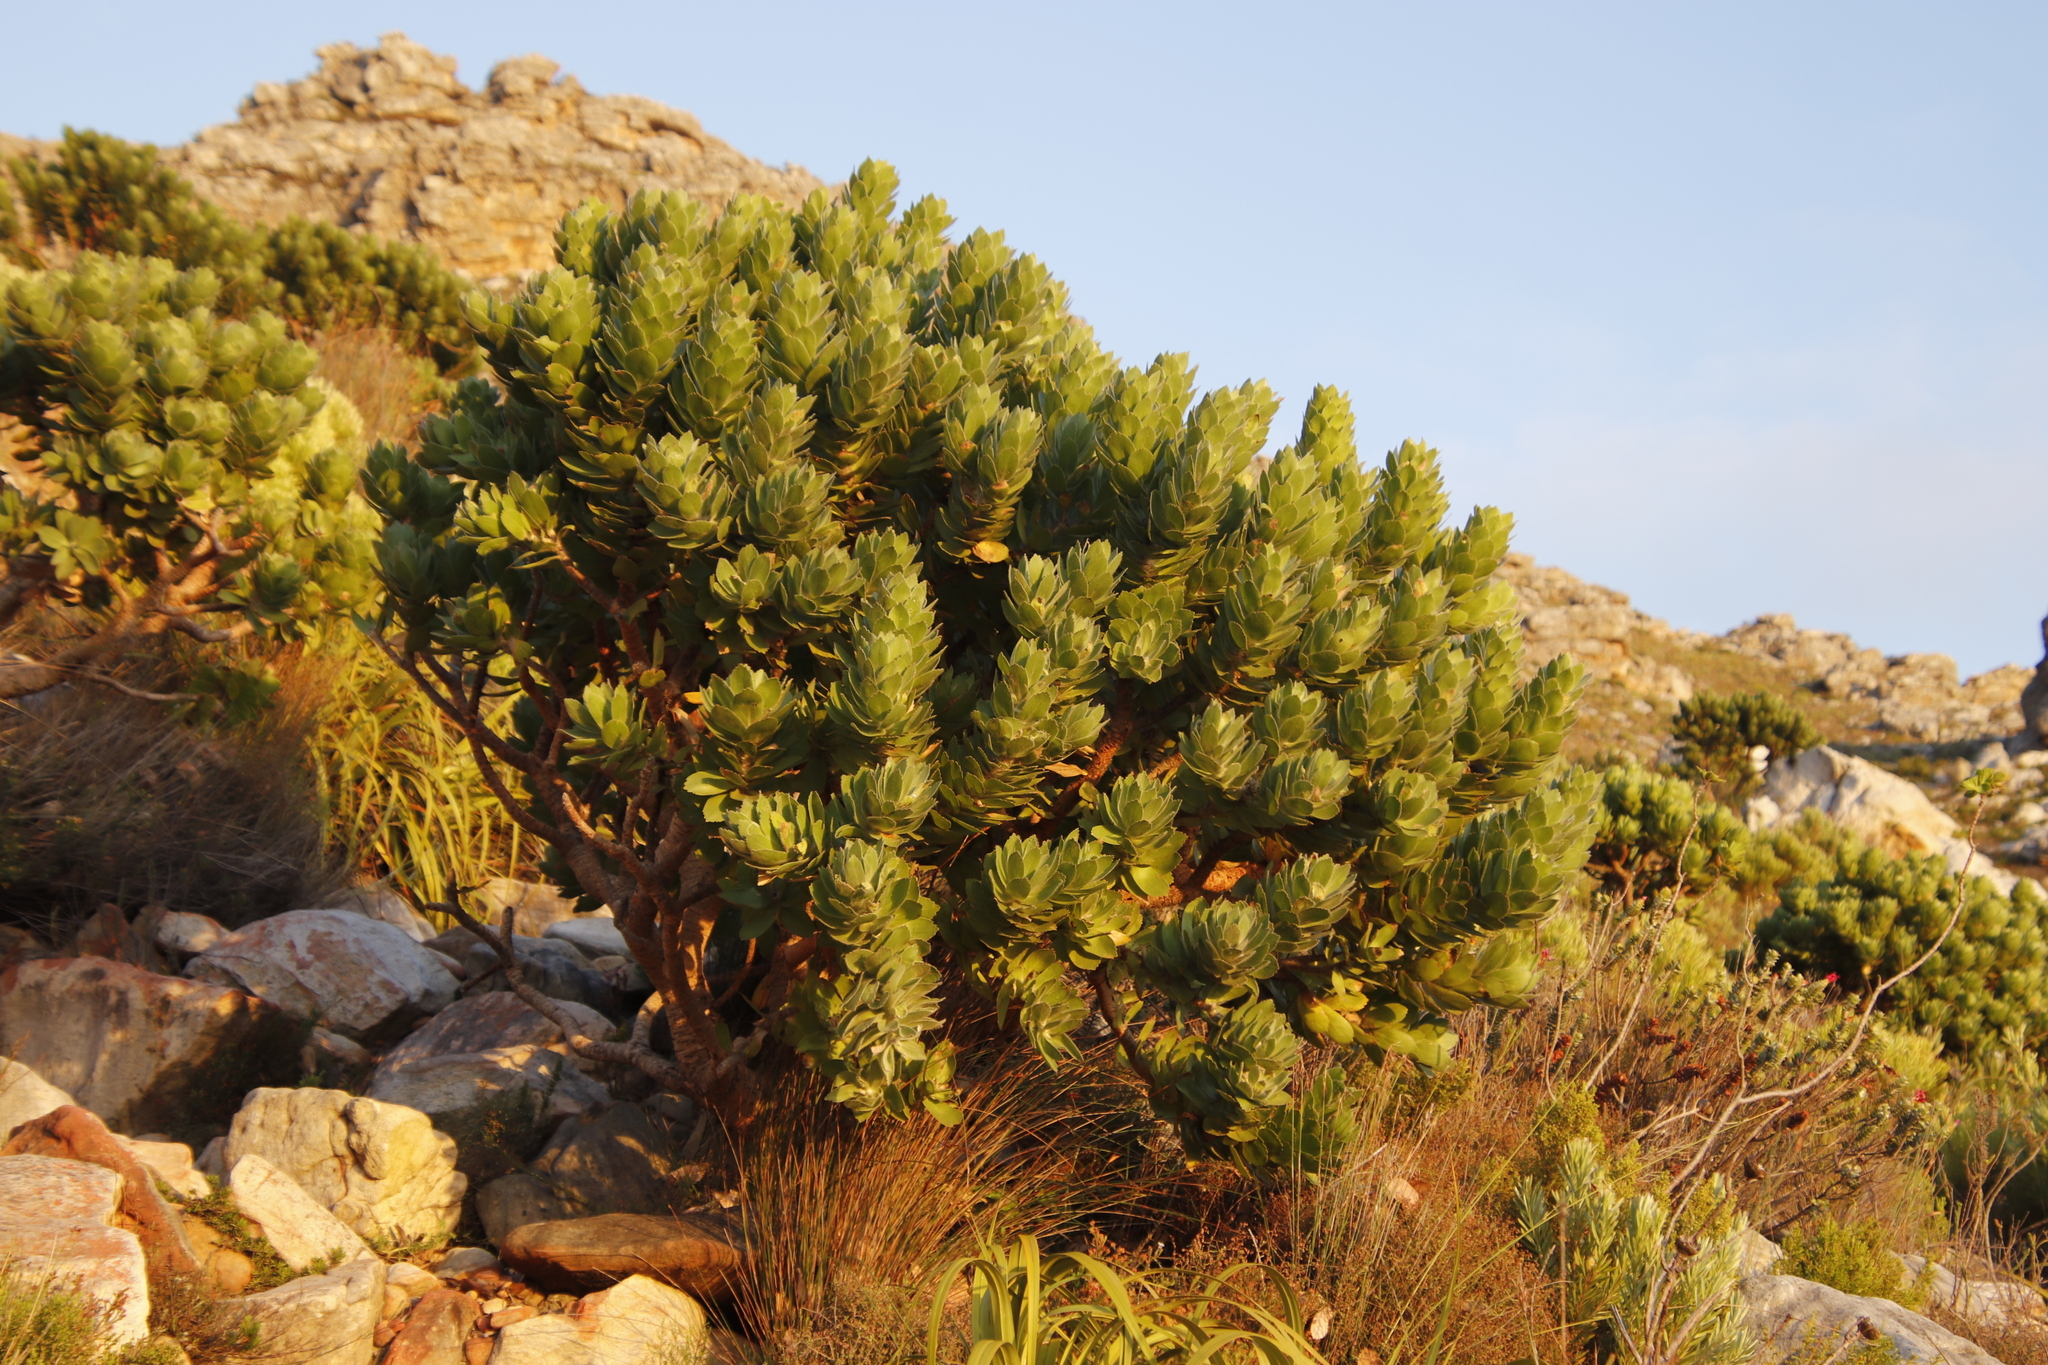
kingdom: Plantae
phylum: Tracheophyta
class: Magnoliopsida
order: Proteales
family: Proteaceae
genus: Leucospermum
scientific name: Leucospermum conocarpodendron
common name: Tree pincushion
